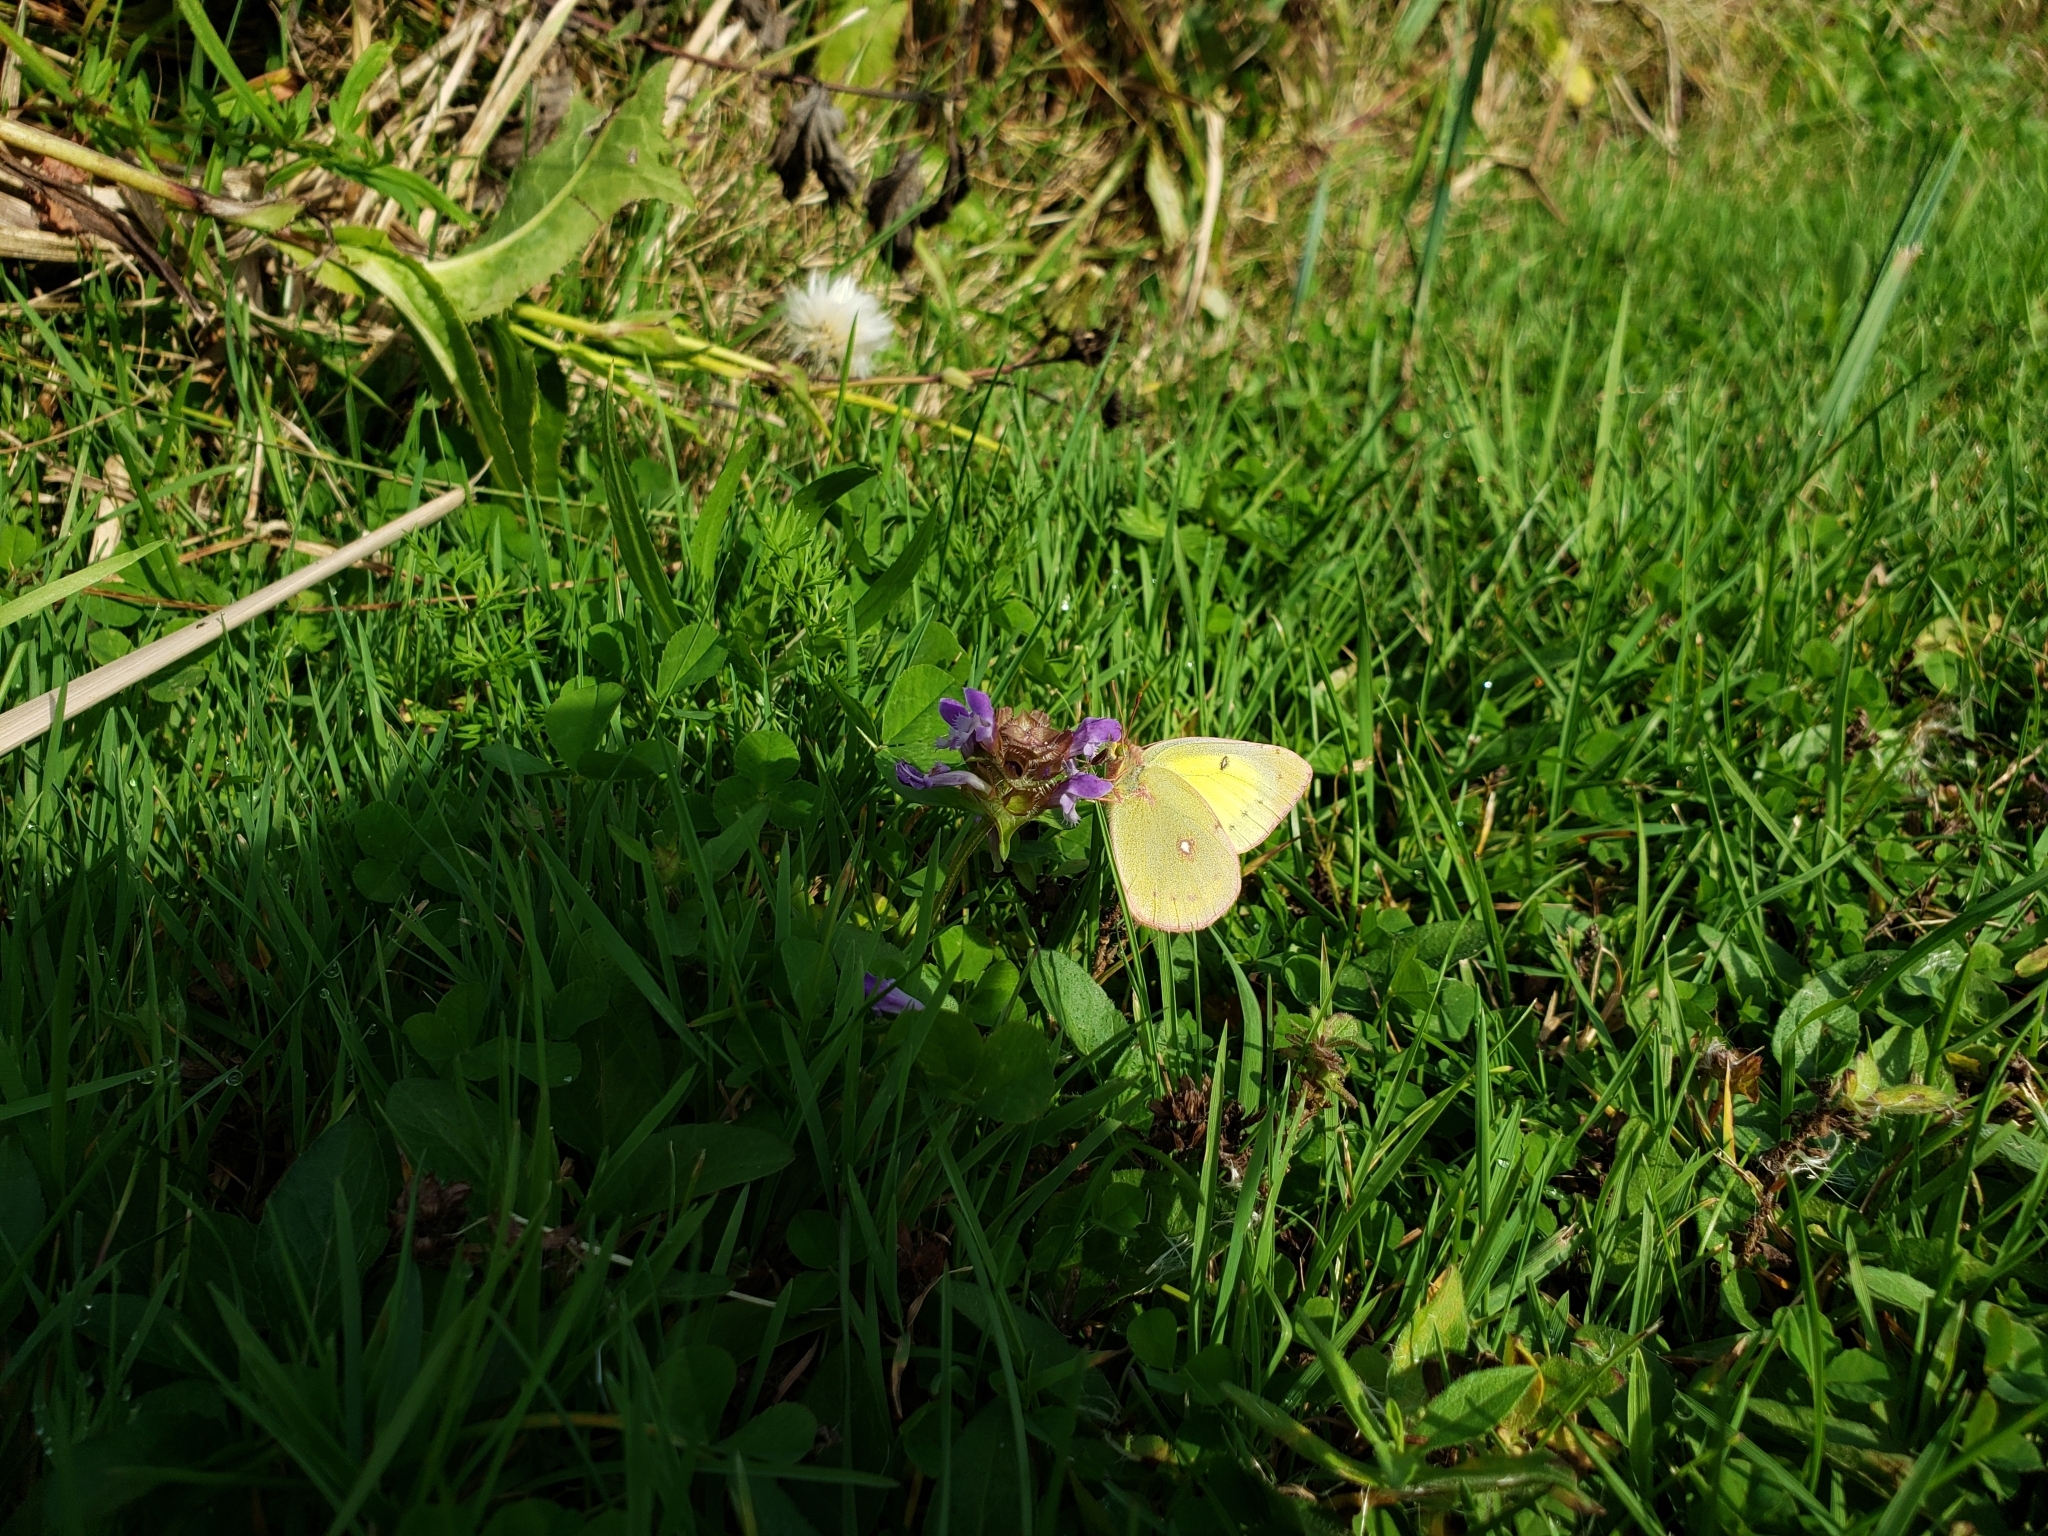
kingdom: Animalia
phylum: Arthropoda
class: Insecta
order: Lepidoptera
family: Pieridae
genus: Colias
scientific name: Colias philodice
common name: Clouded sulphur
